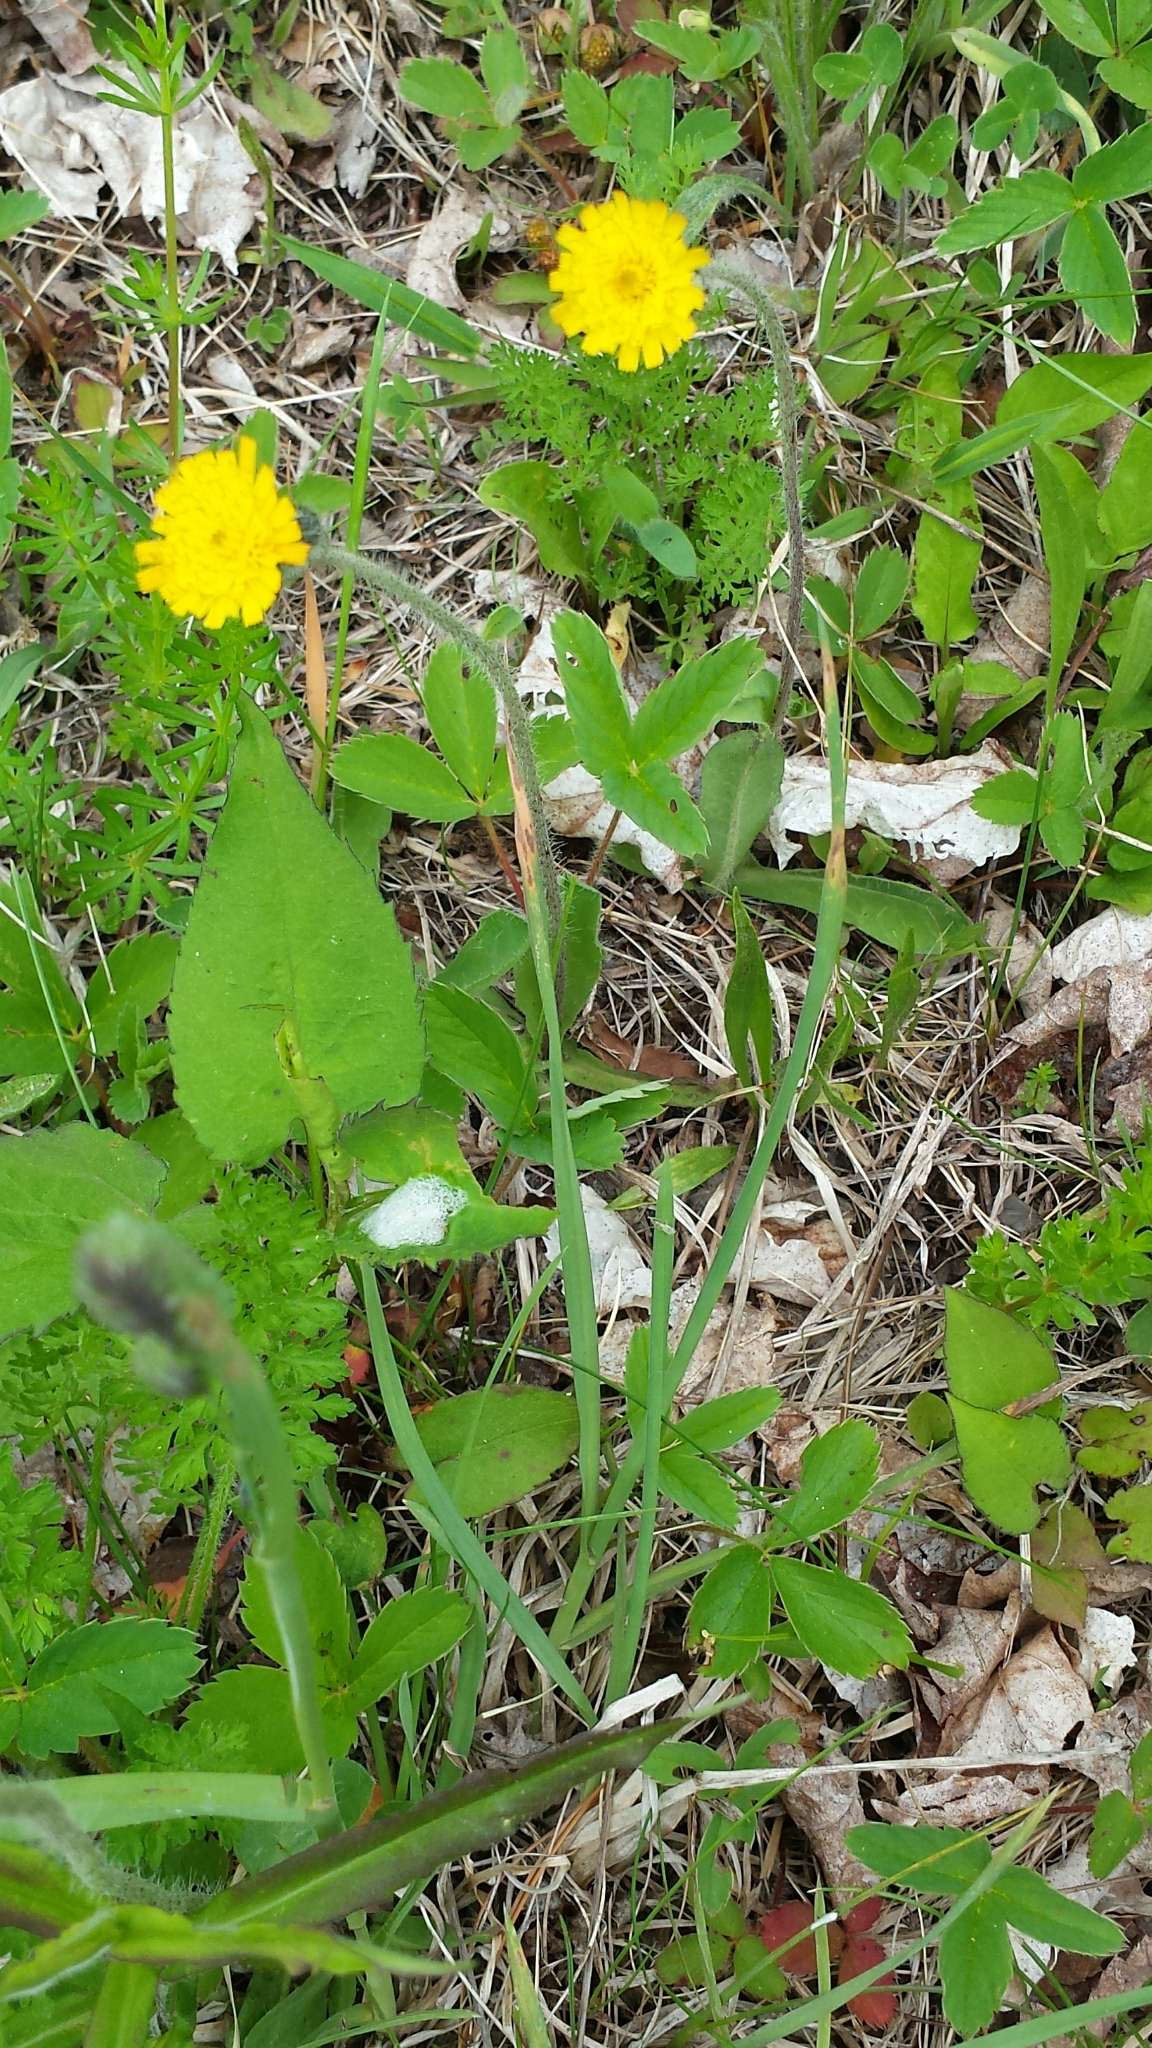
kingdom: Plantae
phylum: Tracheophyta
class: Magnoliopsida
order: Asterales
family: Asteraceae
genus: Pilosella
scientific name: Pilosella officinarum
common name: Mouse-ear hawkweed
